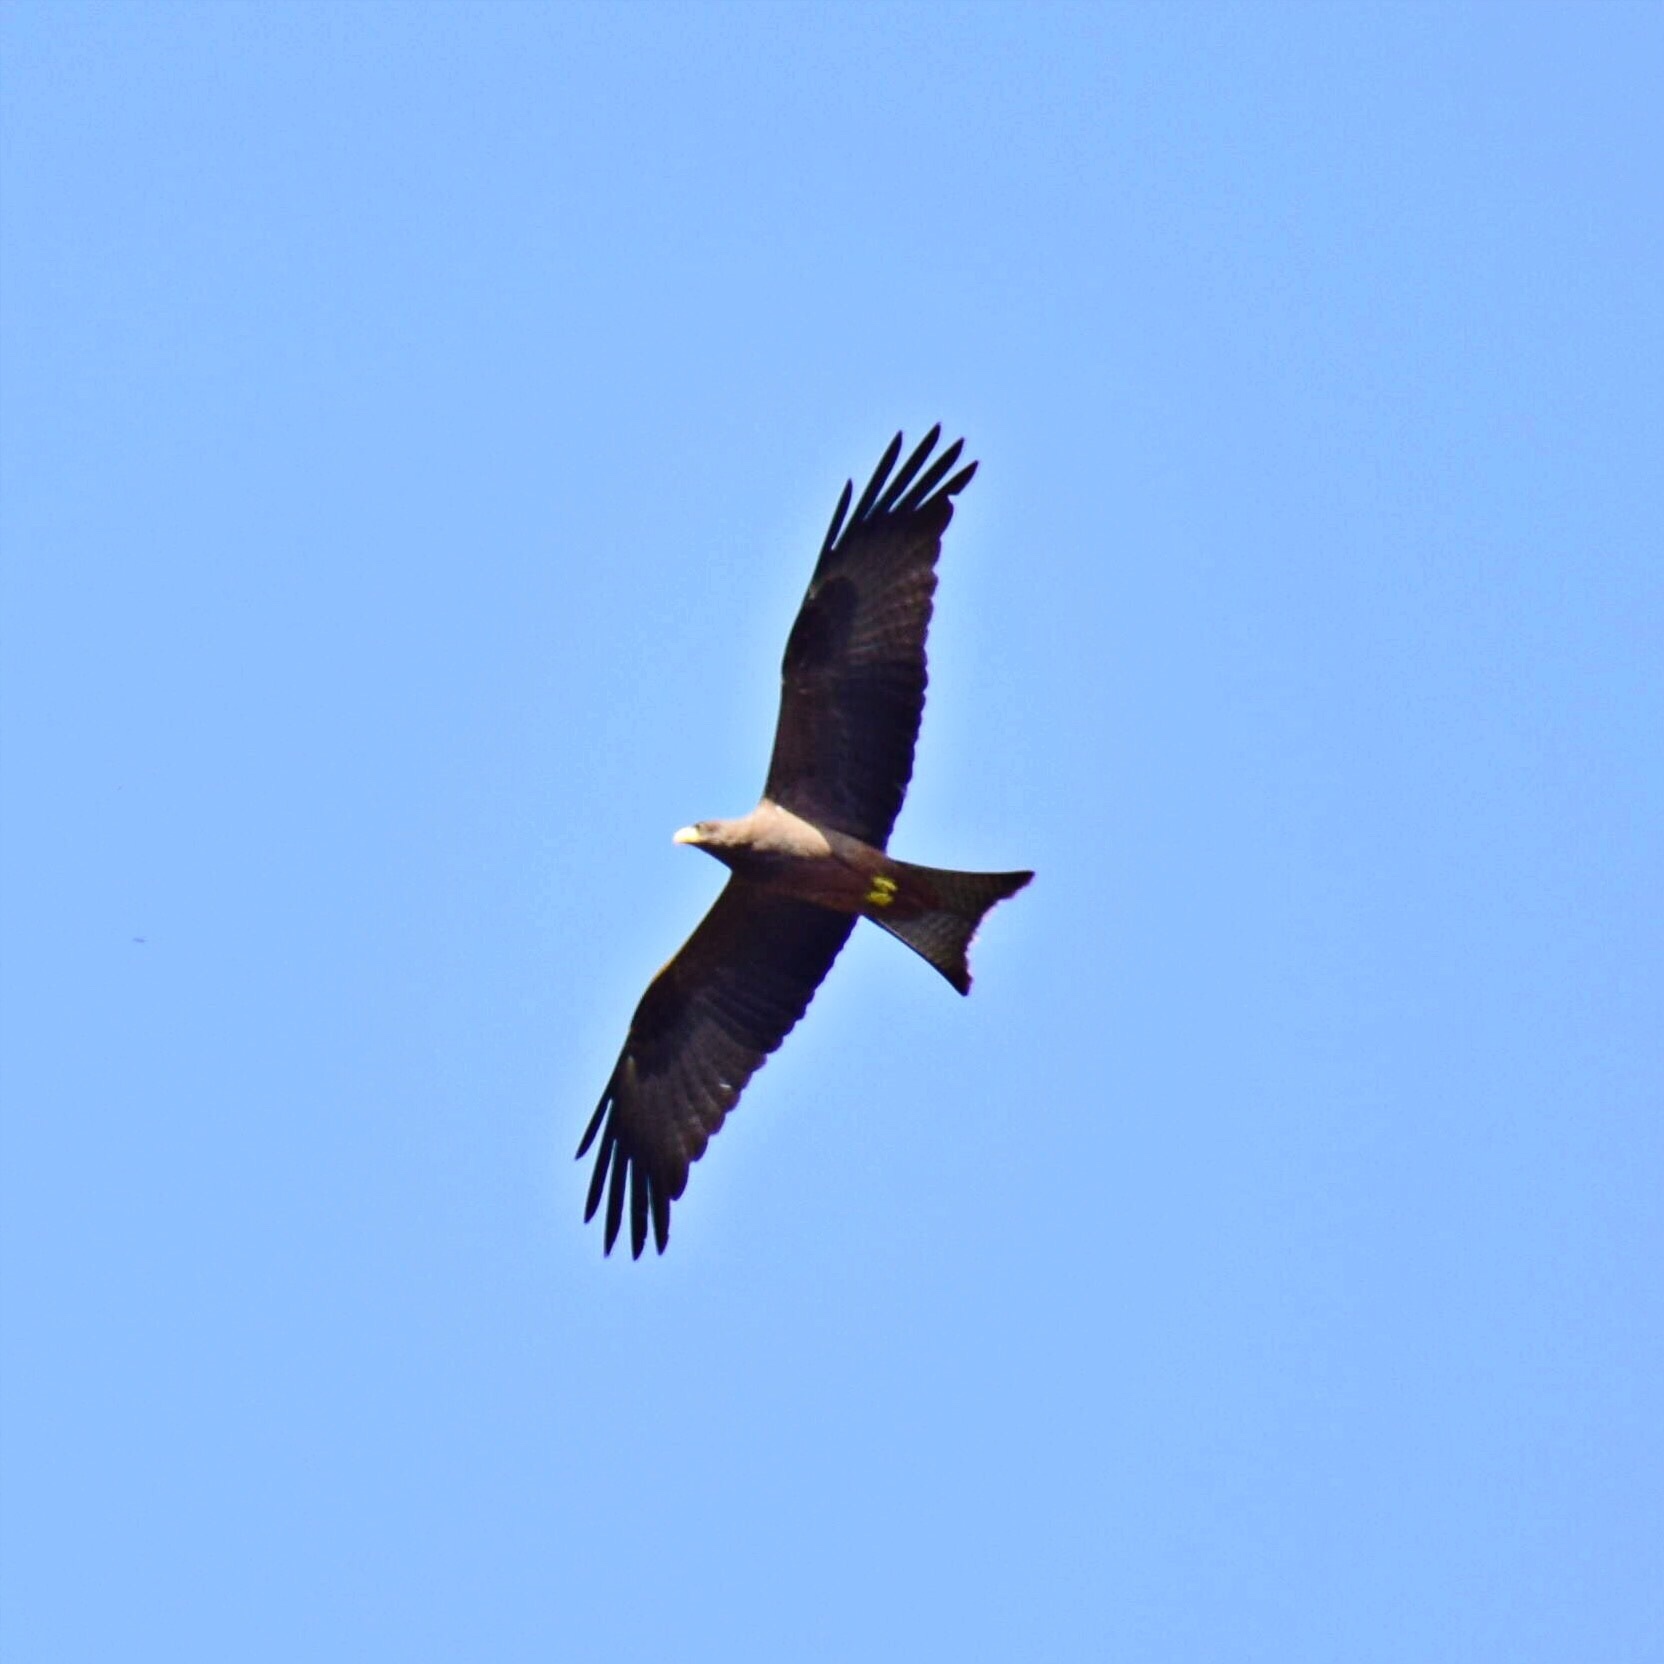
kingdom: Animalia
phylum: Chordata
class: Aves
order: Accipitriformes
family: Accipitridae
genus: Milvus
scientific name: Milvus migrans
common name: Black kite
